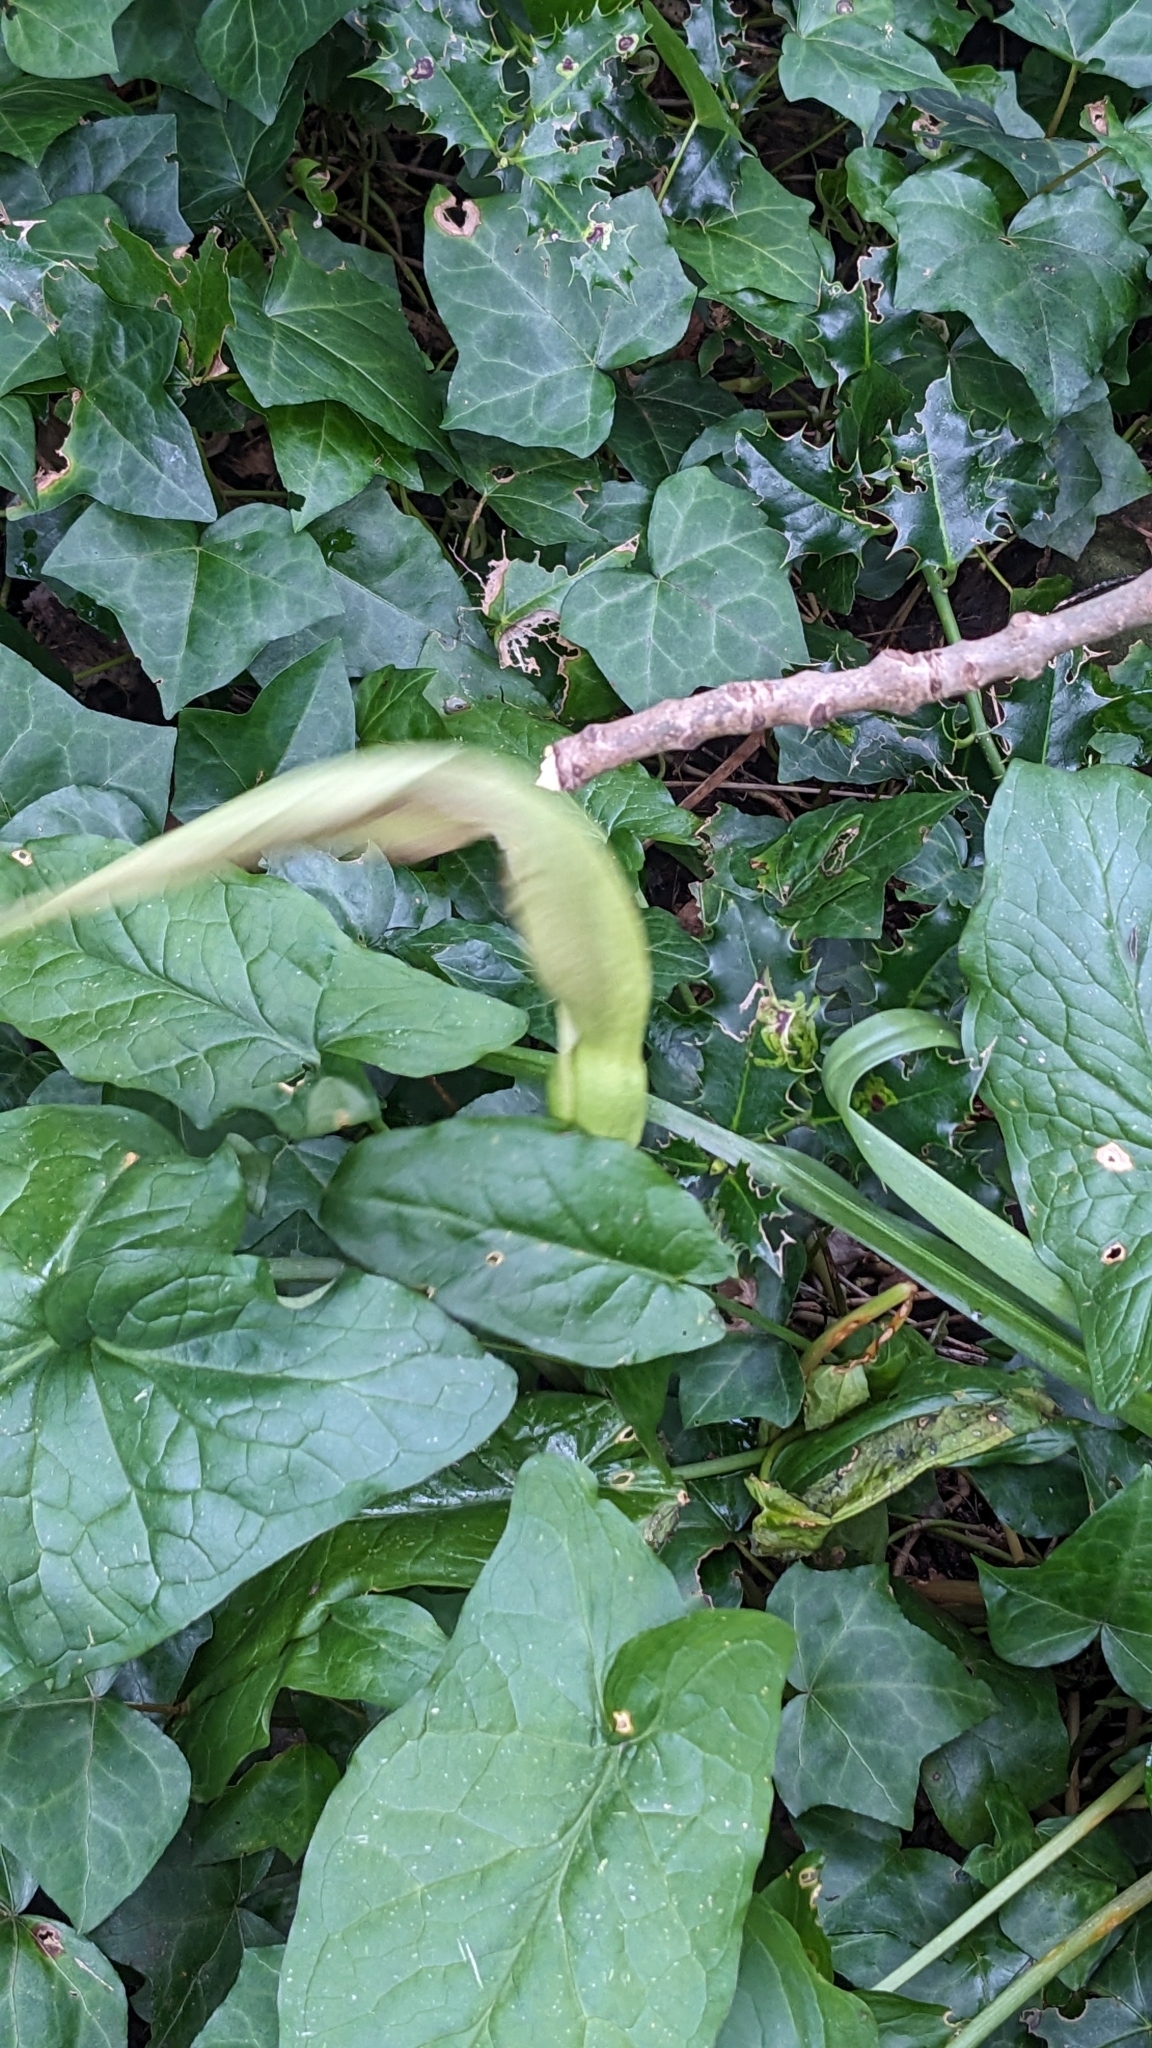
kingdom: Plantae
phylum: Tracheophyta
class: Liliopsida
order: Alismatales
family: Araceae
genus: Arum
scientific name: Arum maculatum
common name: Lords-and-ladies
